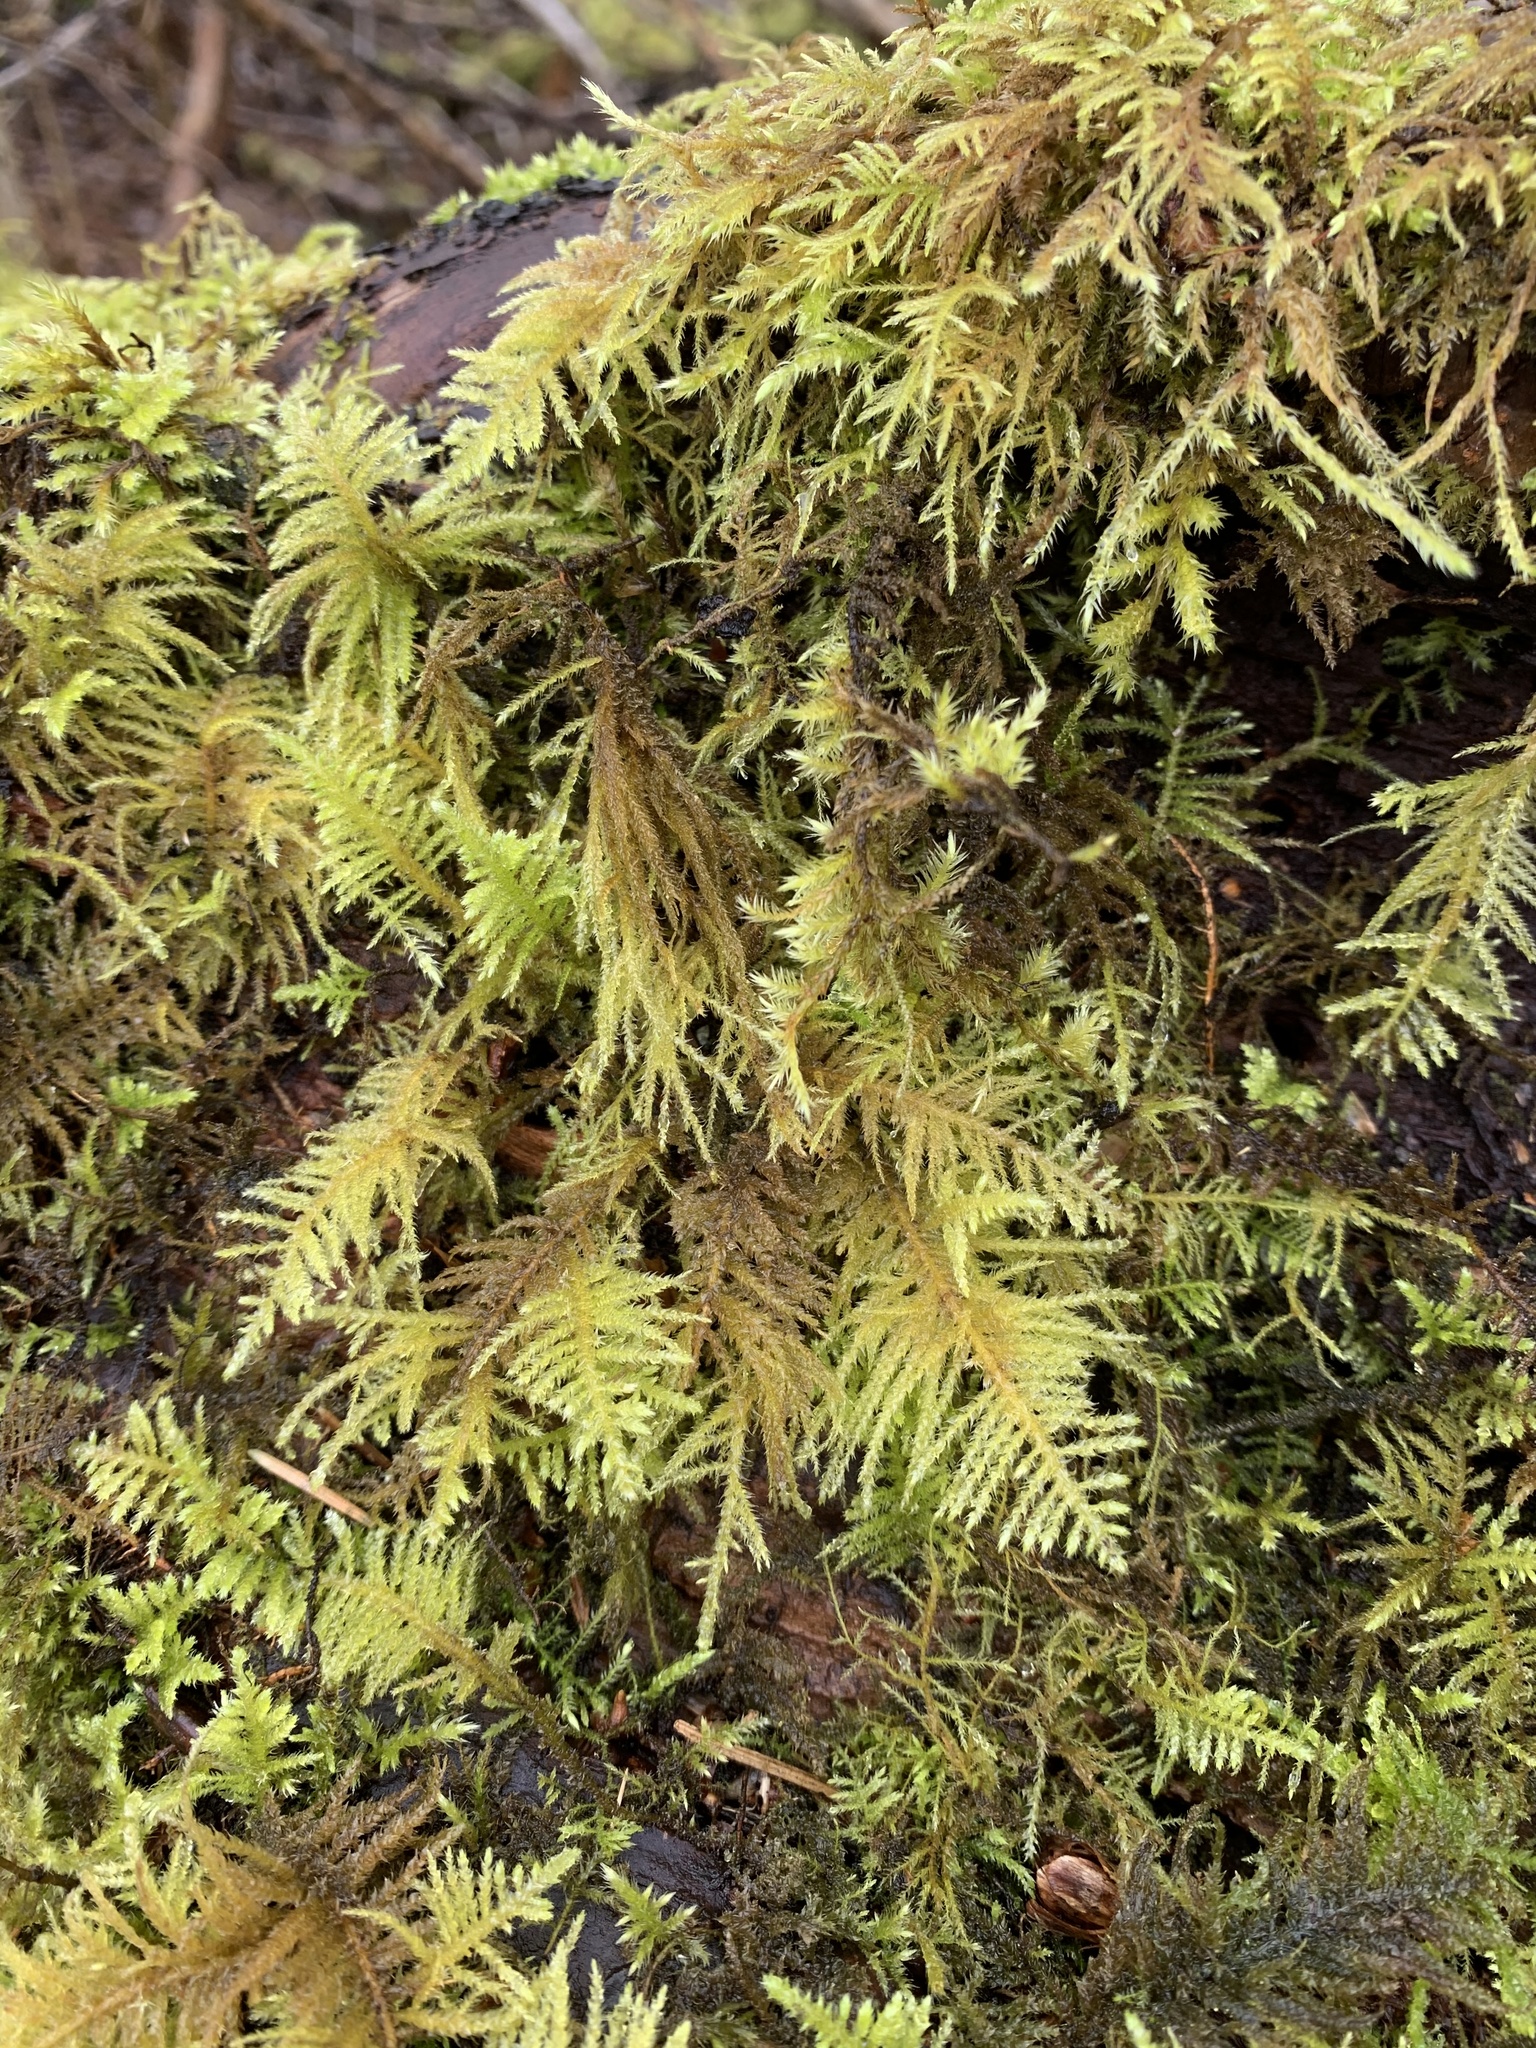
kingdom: Plantae
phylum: Bryophyta
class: Bryopsida
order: Hypnales
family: Brachytheciaceae
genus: Kindbergia
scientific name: Kindbergia oregana
